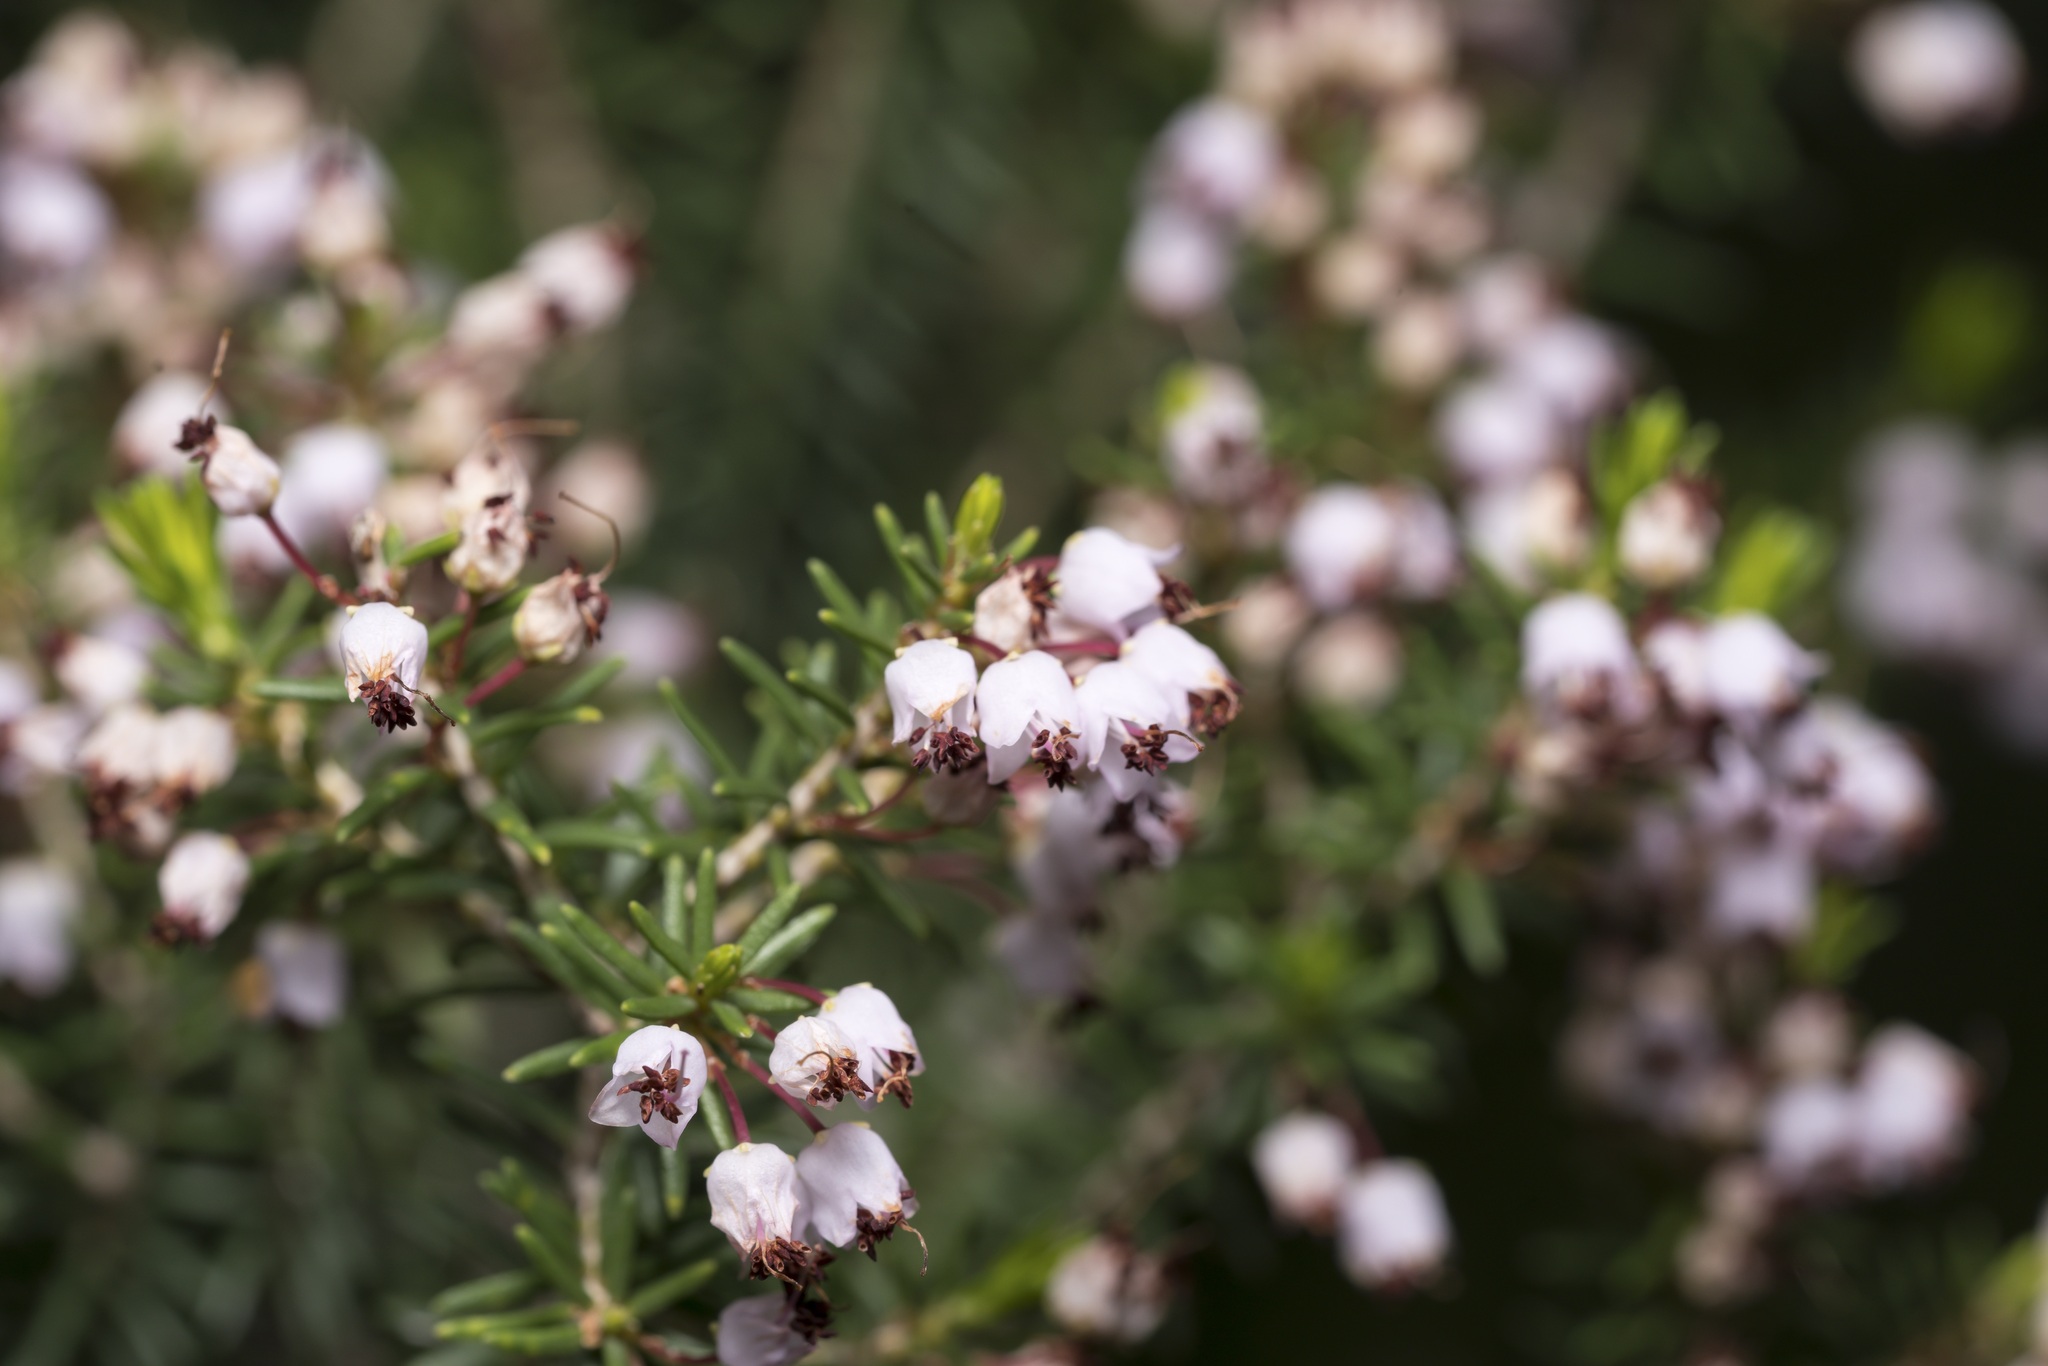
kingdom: Plantae
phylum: Tracheophyta
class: Magnoliopsida
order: Ericales
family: Ericaceae
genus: Erica
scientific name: Erica manipuliflora
